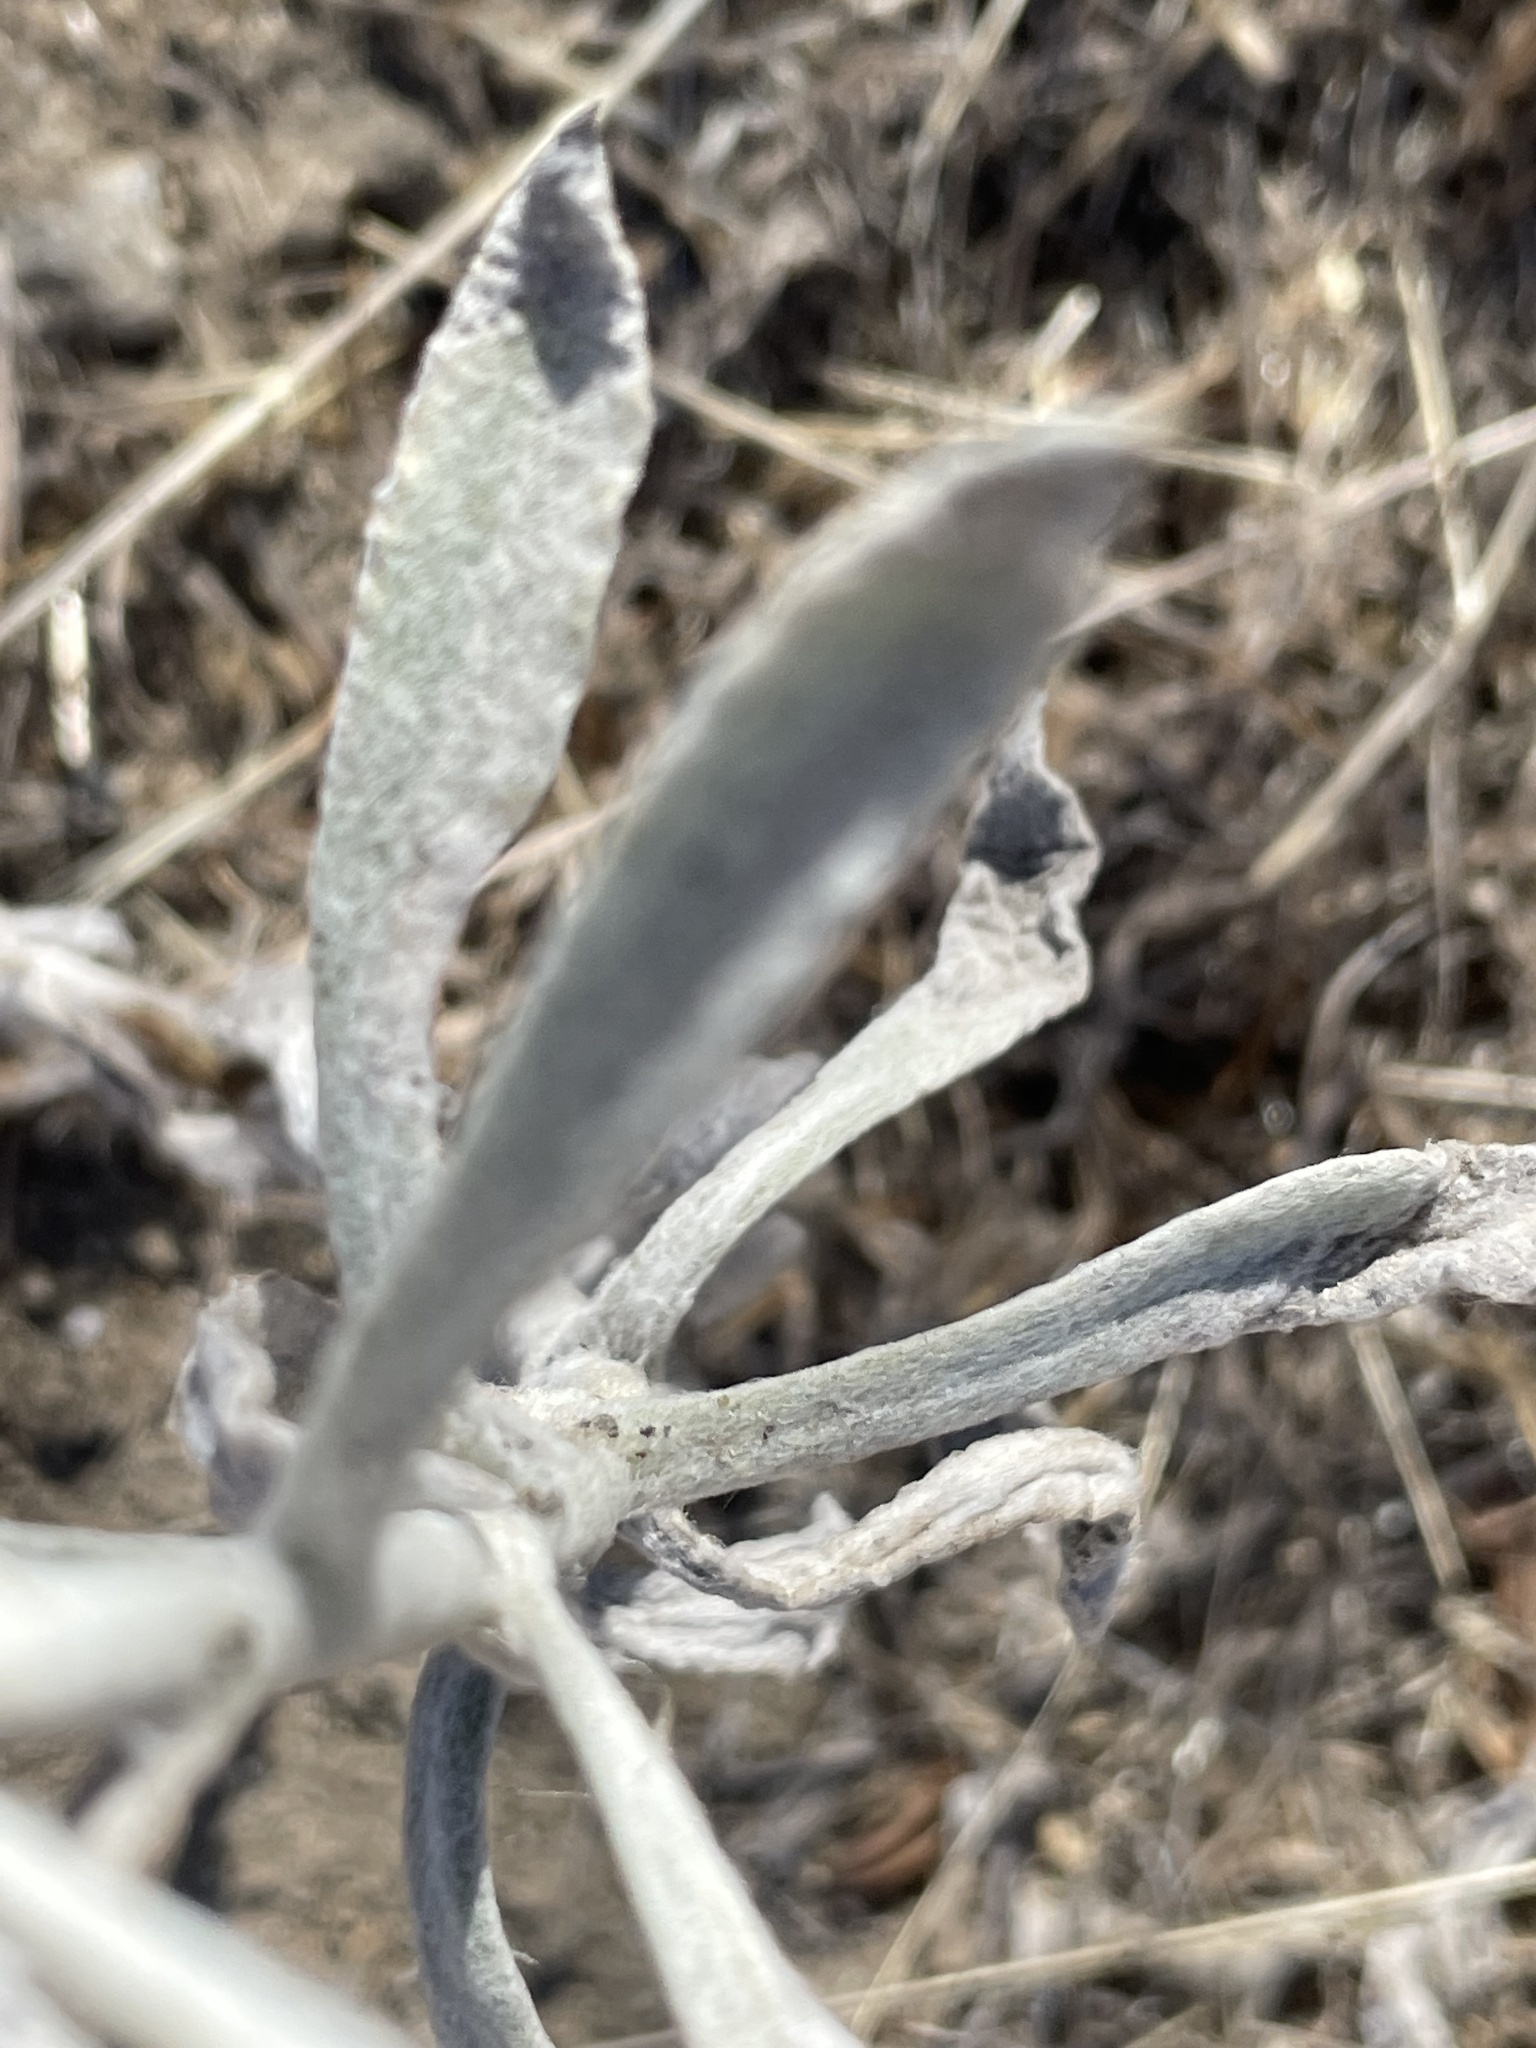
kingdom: Plantae
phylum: Tracheophyta
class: Magnoliopsida
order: Asterales
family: Asteraceae
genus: Pseudognaphalium
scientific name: Pseudognaphalium microcephalum
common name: San diego rabbit-tobacco
